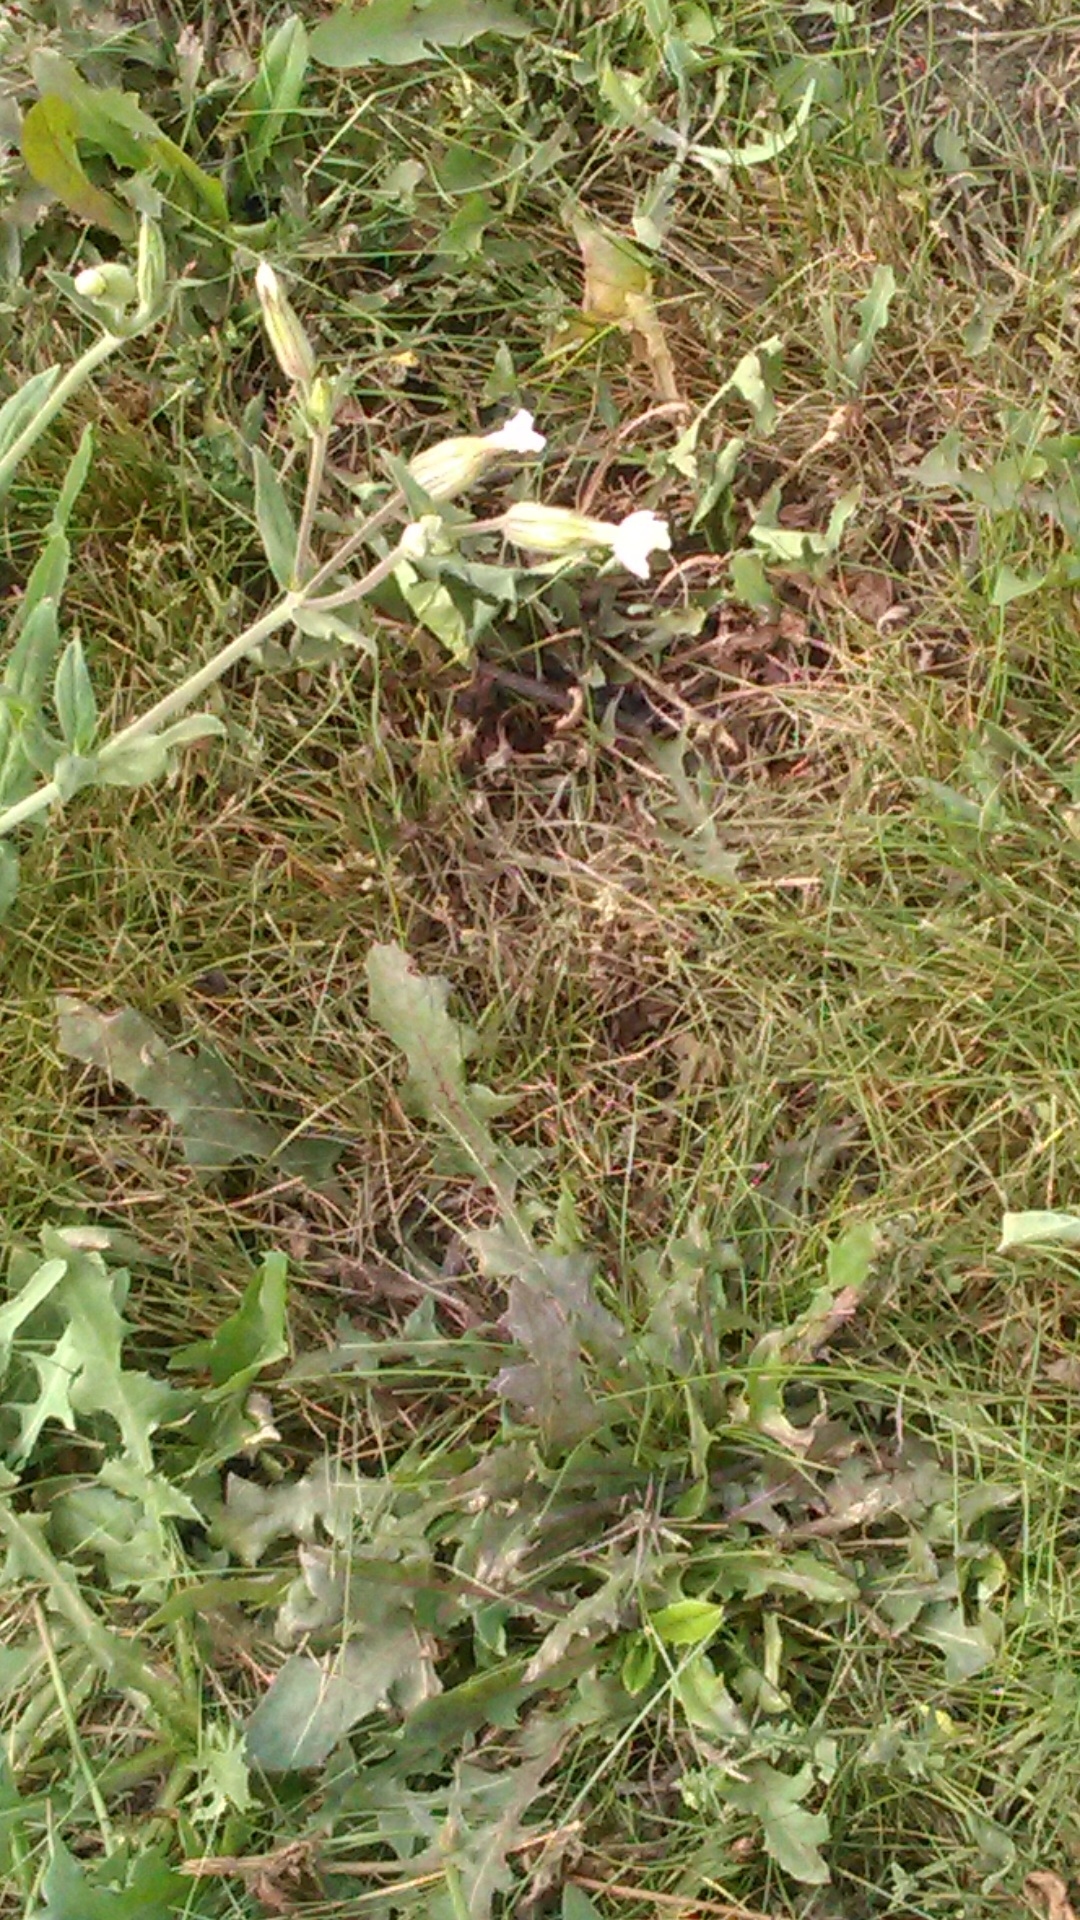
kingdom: Plantae
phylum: Tracheophyta
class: Magnoliopsida
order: Caryophyllales
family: Caryophyllaceae
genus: Silene
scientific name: Silene latifolia
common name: White campion
